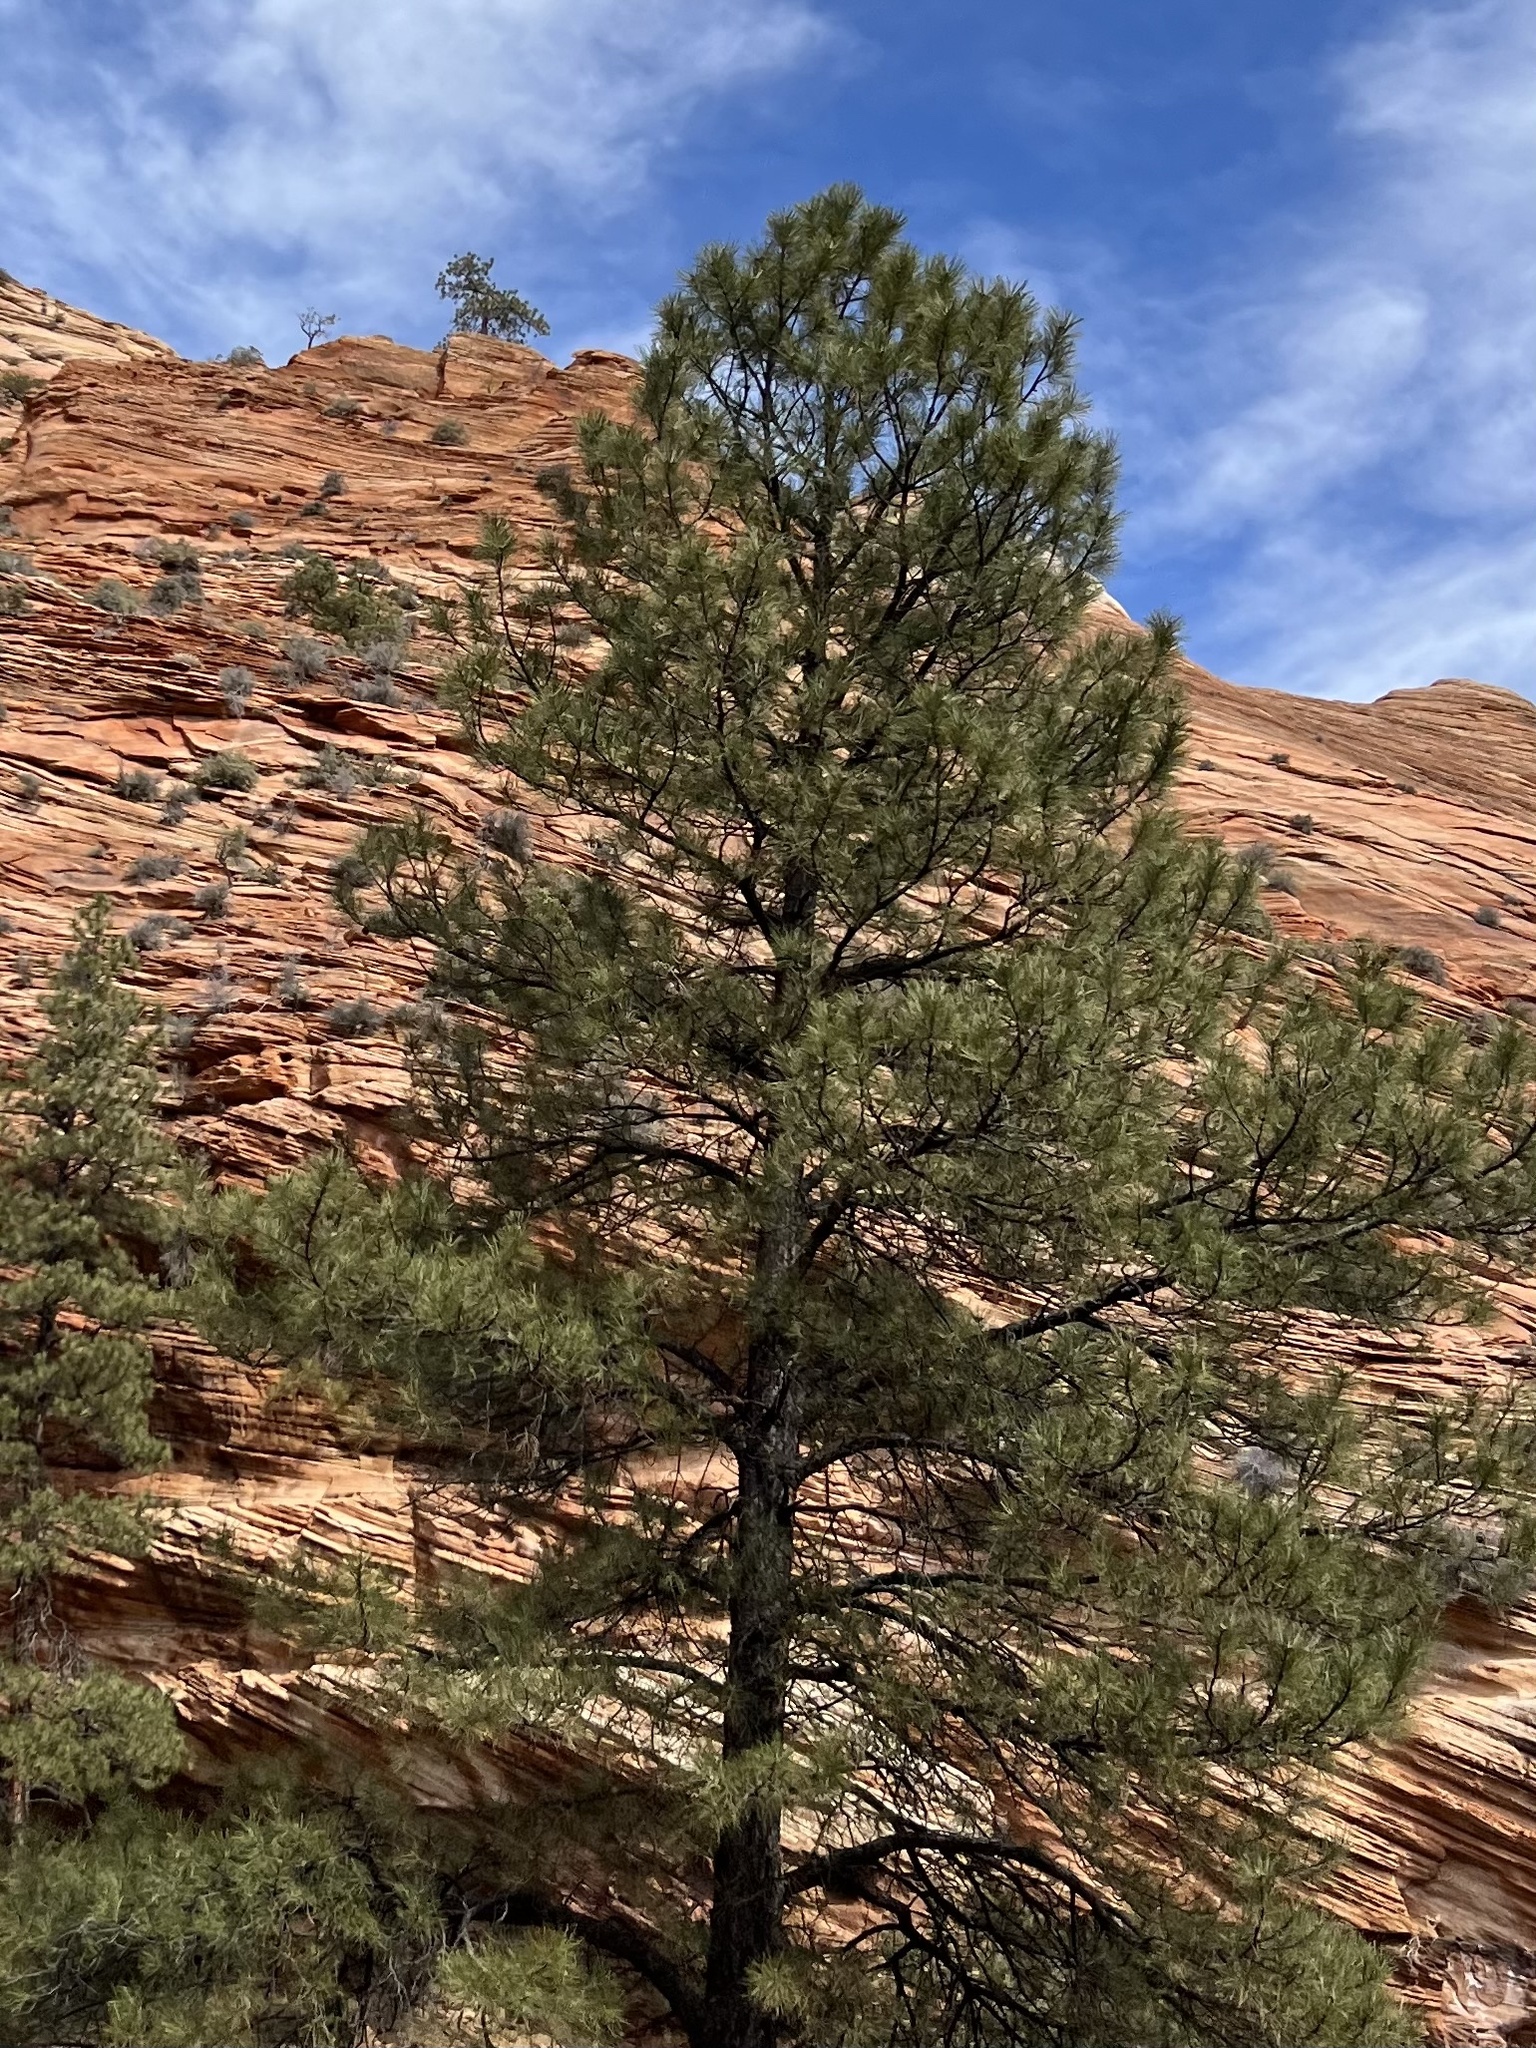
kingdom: Plantae
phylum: Tracheophyta
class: Pinopsida
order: Pinales
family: Pinaceae
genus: Pinus
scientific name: Pinus ponderosa
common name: Western yellow-pine
